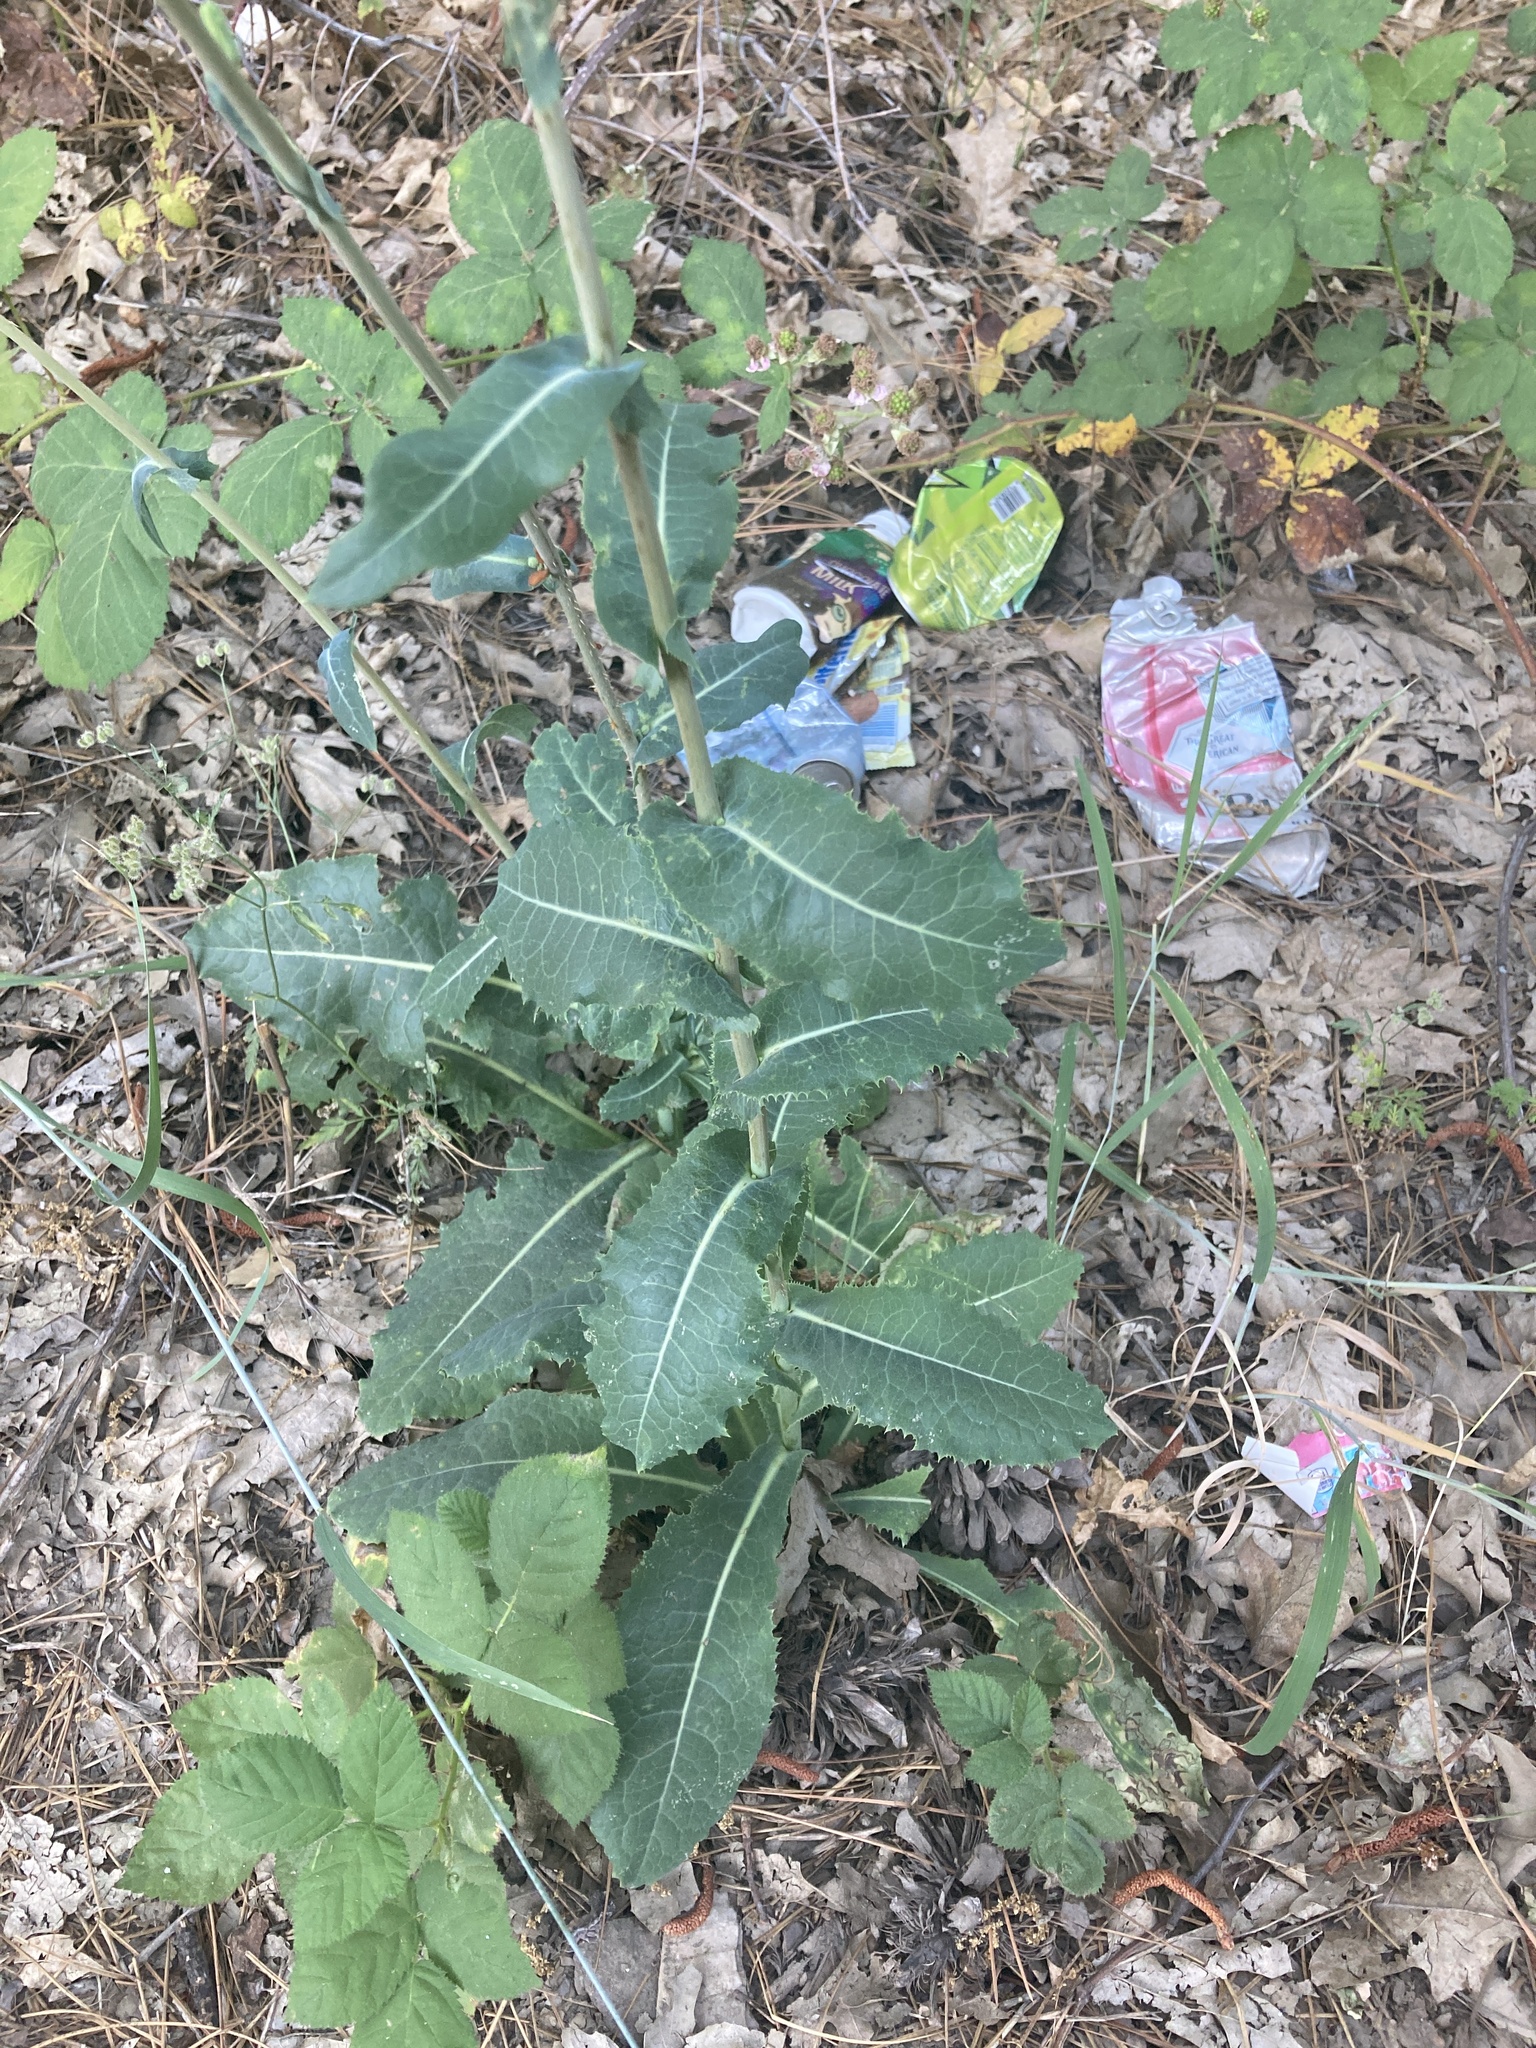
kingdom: Plantae
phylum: Tracheophyta
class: Magnoliopsida
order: Asterales
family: Asteraceae
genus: Lactuca
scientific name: Lactuca virosa
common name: Great lettuce
